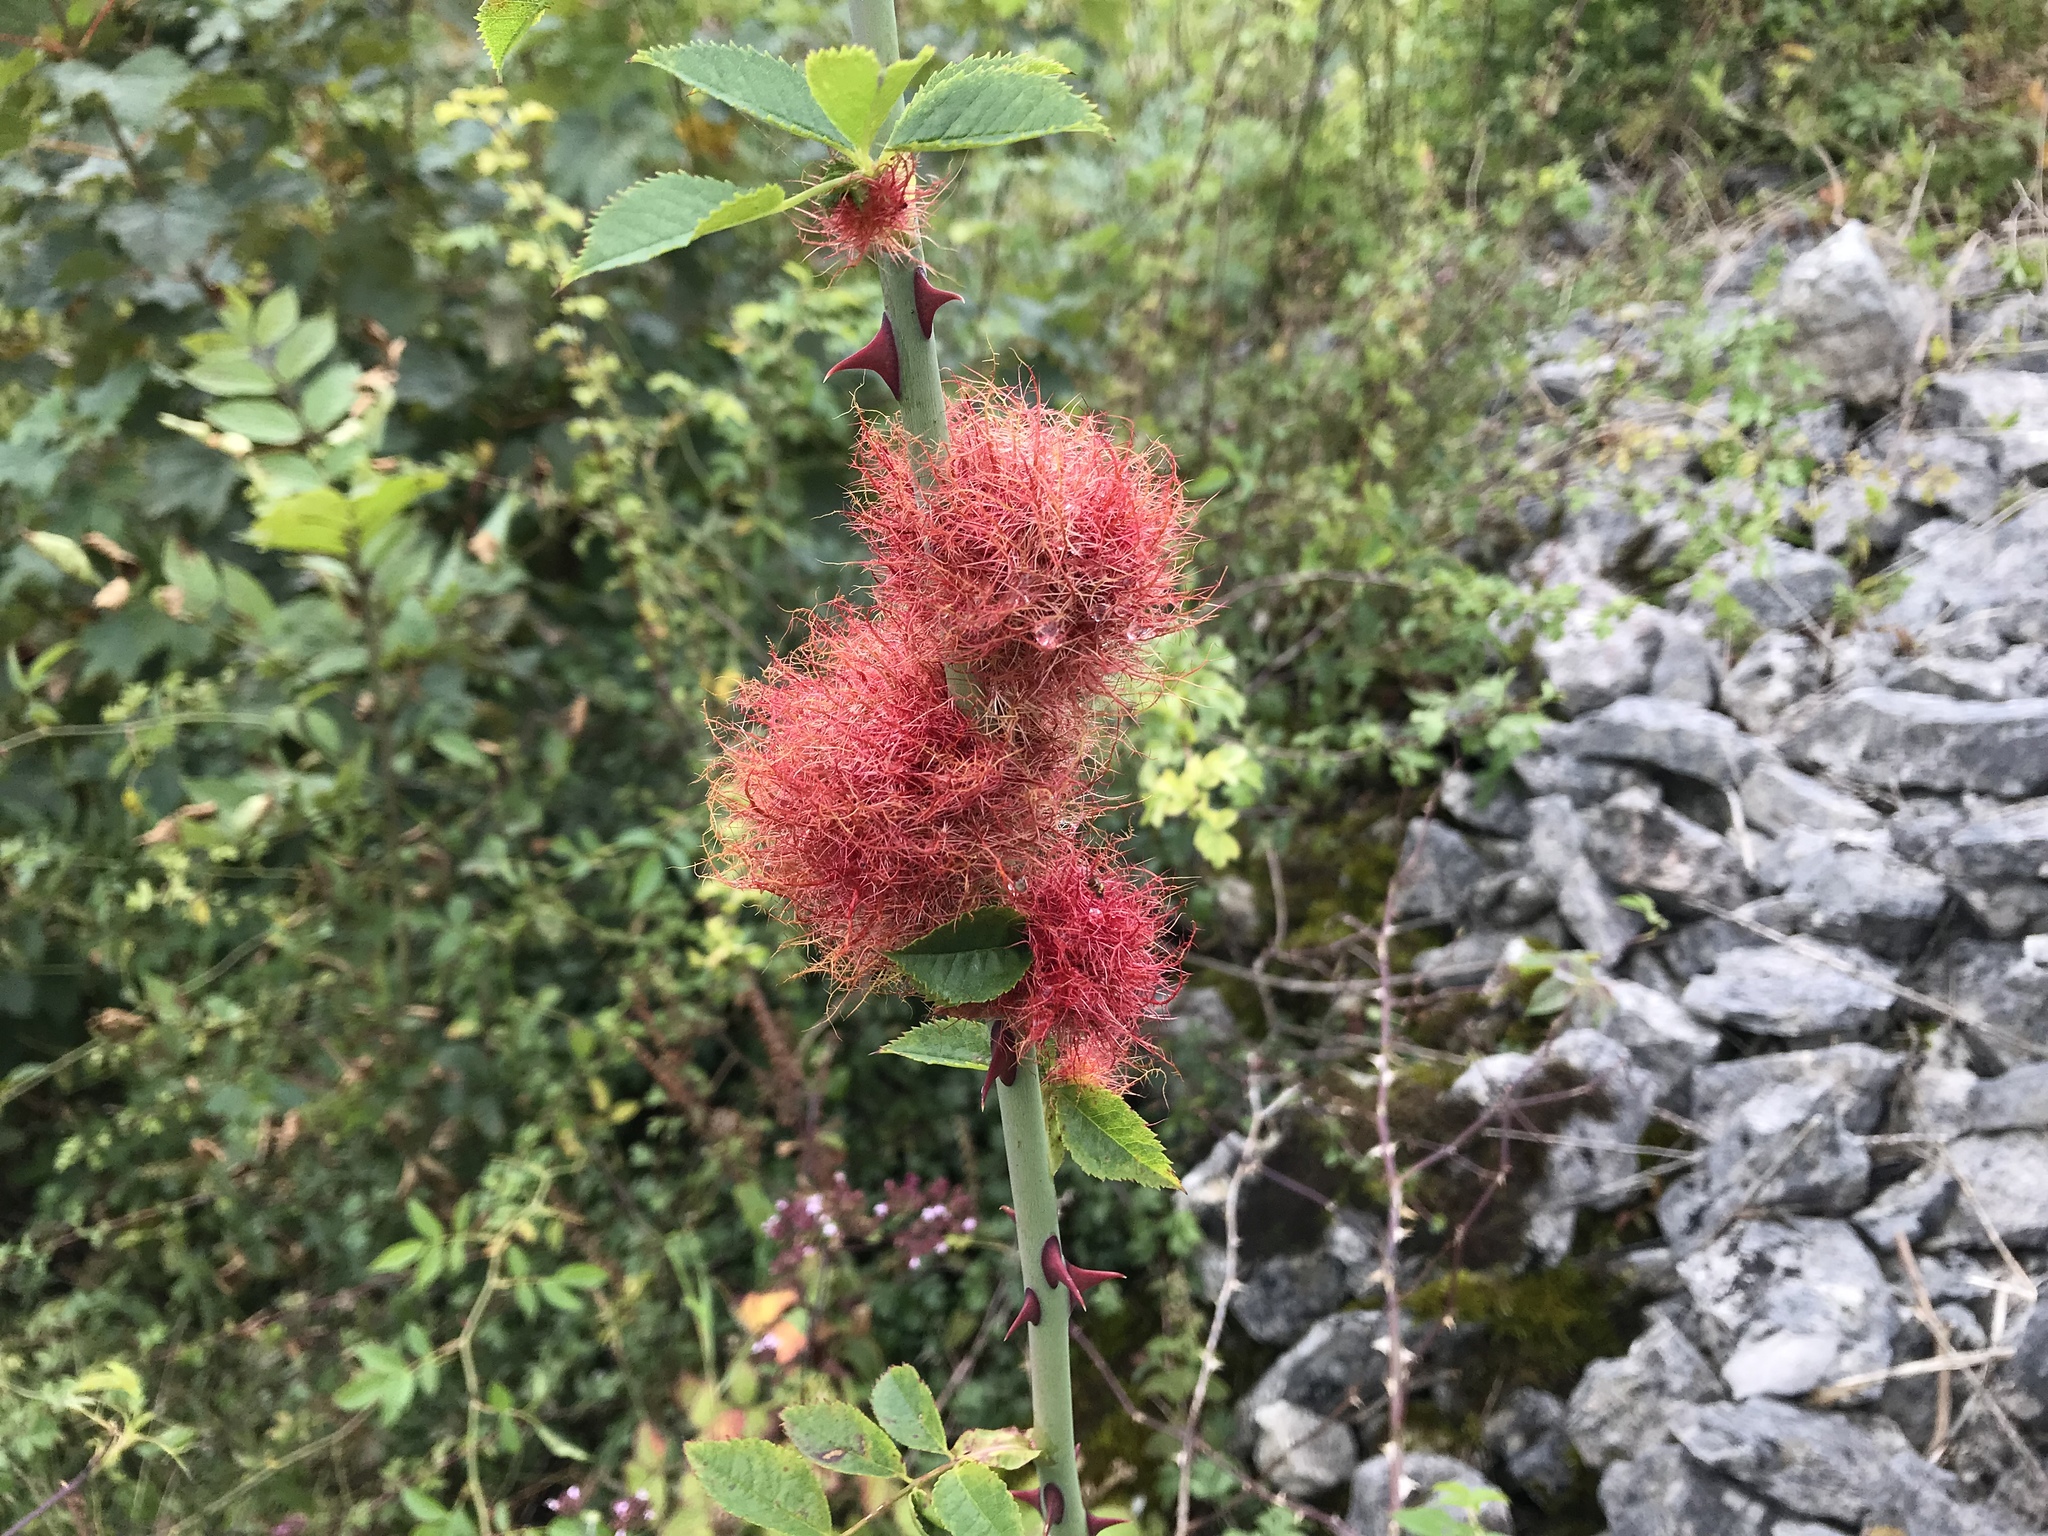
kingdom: Animalia
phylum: Arthropoda
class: Insecta
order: Hymenoptera
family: Cynipidae
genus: Diplolepis
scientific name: Diplolepis rosae
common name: Bedeguar gall
